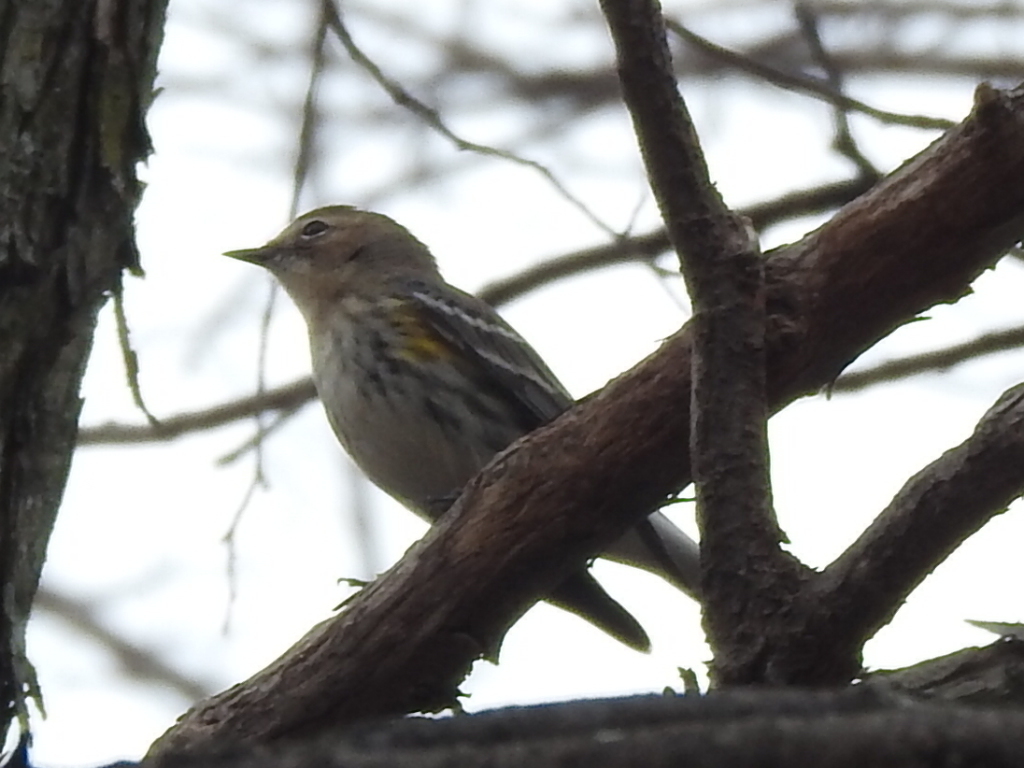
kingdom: Animalia
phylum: Chordata
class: Aves
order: Passeriformes
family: Parulidae
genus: Setophaga
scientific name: Setophaga coronata
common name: Myrtle warbler
